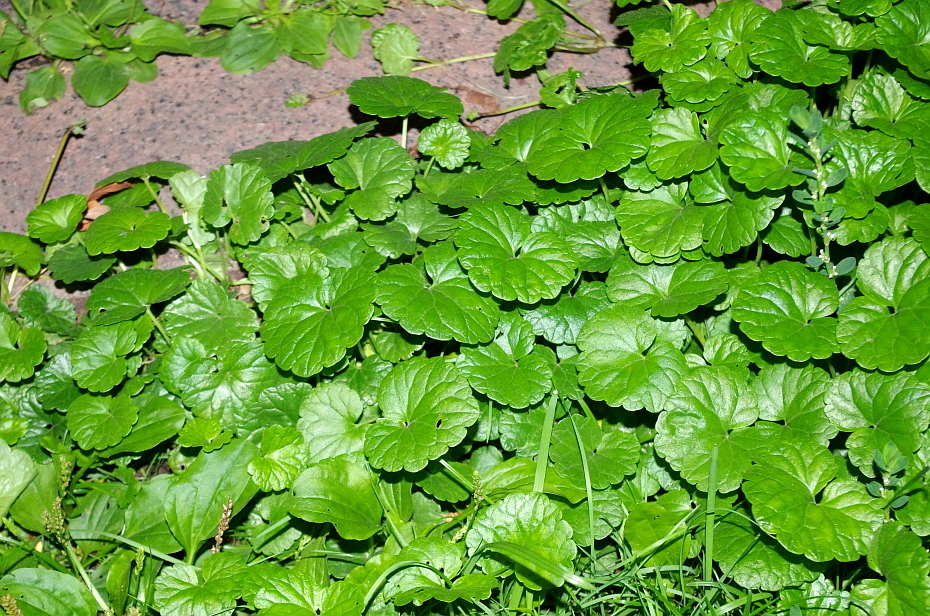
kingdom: Plantae
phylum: Tracheophyta
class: Magnoliopsida
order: Lamiales
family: Lamiaceae
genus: Glechoma
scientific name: Glechoma hederacea
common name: Ground ivy
